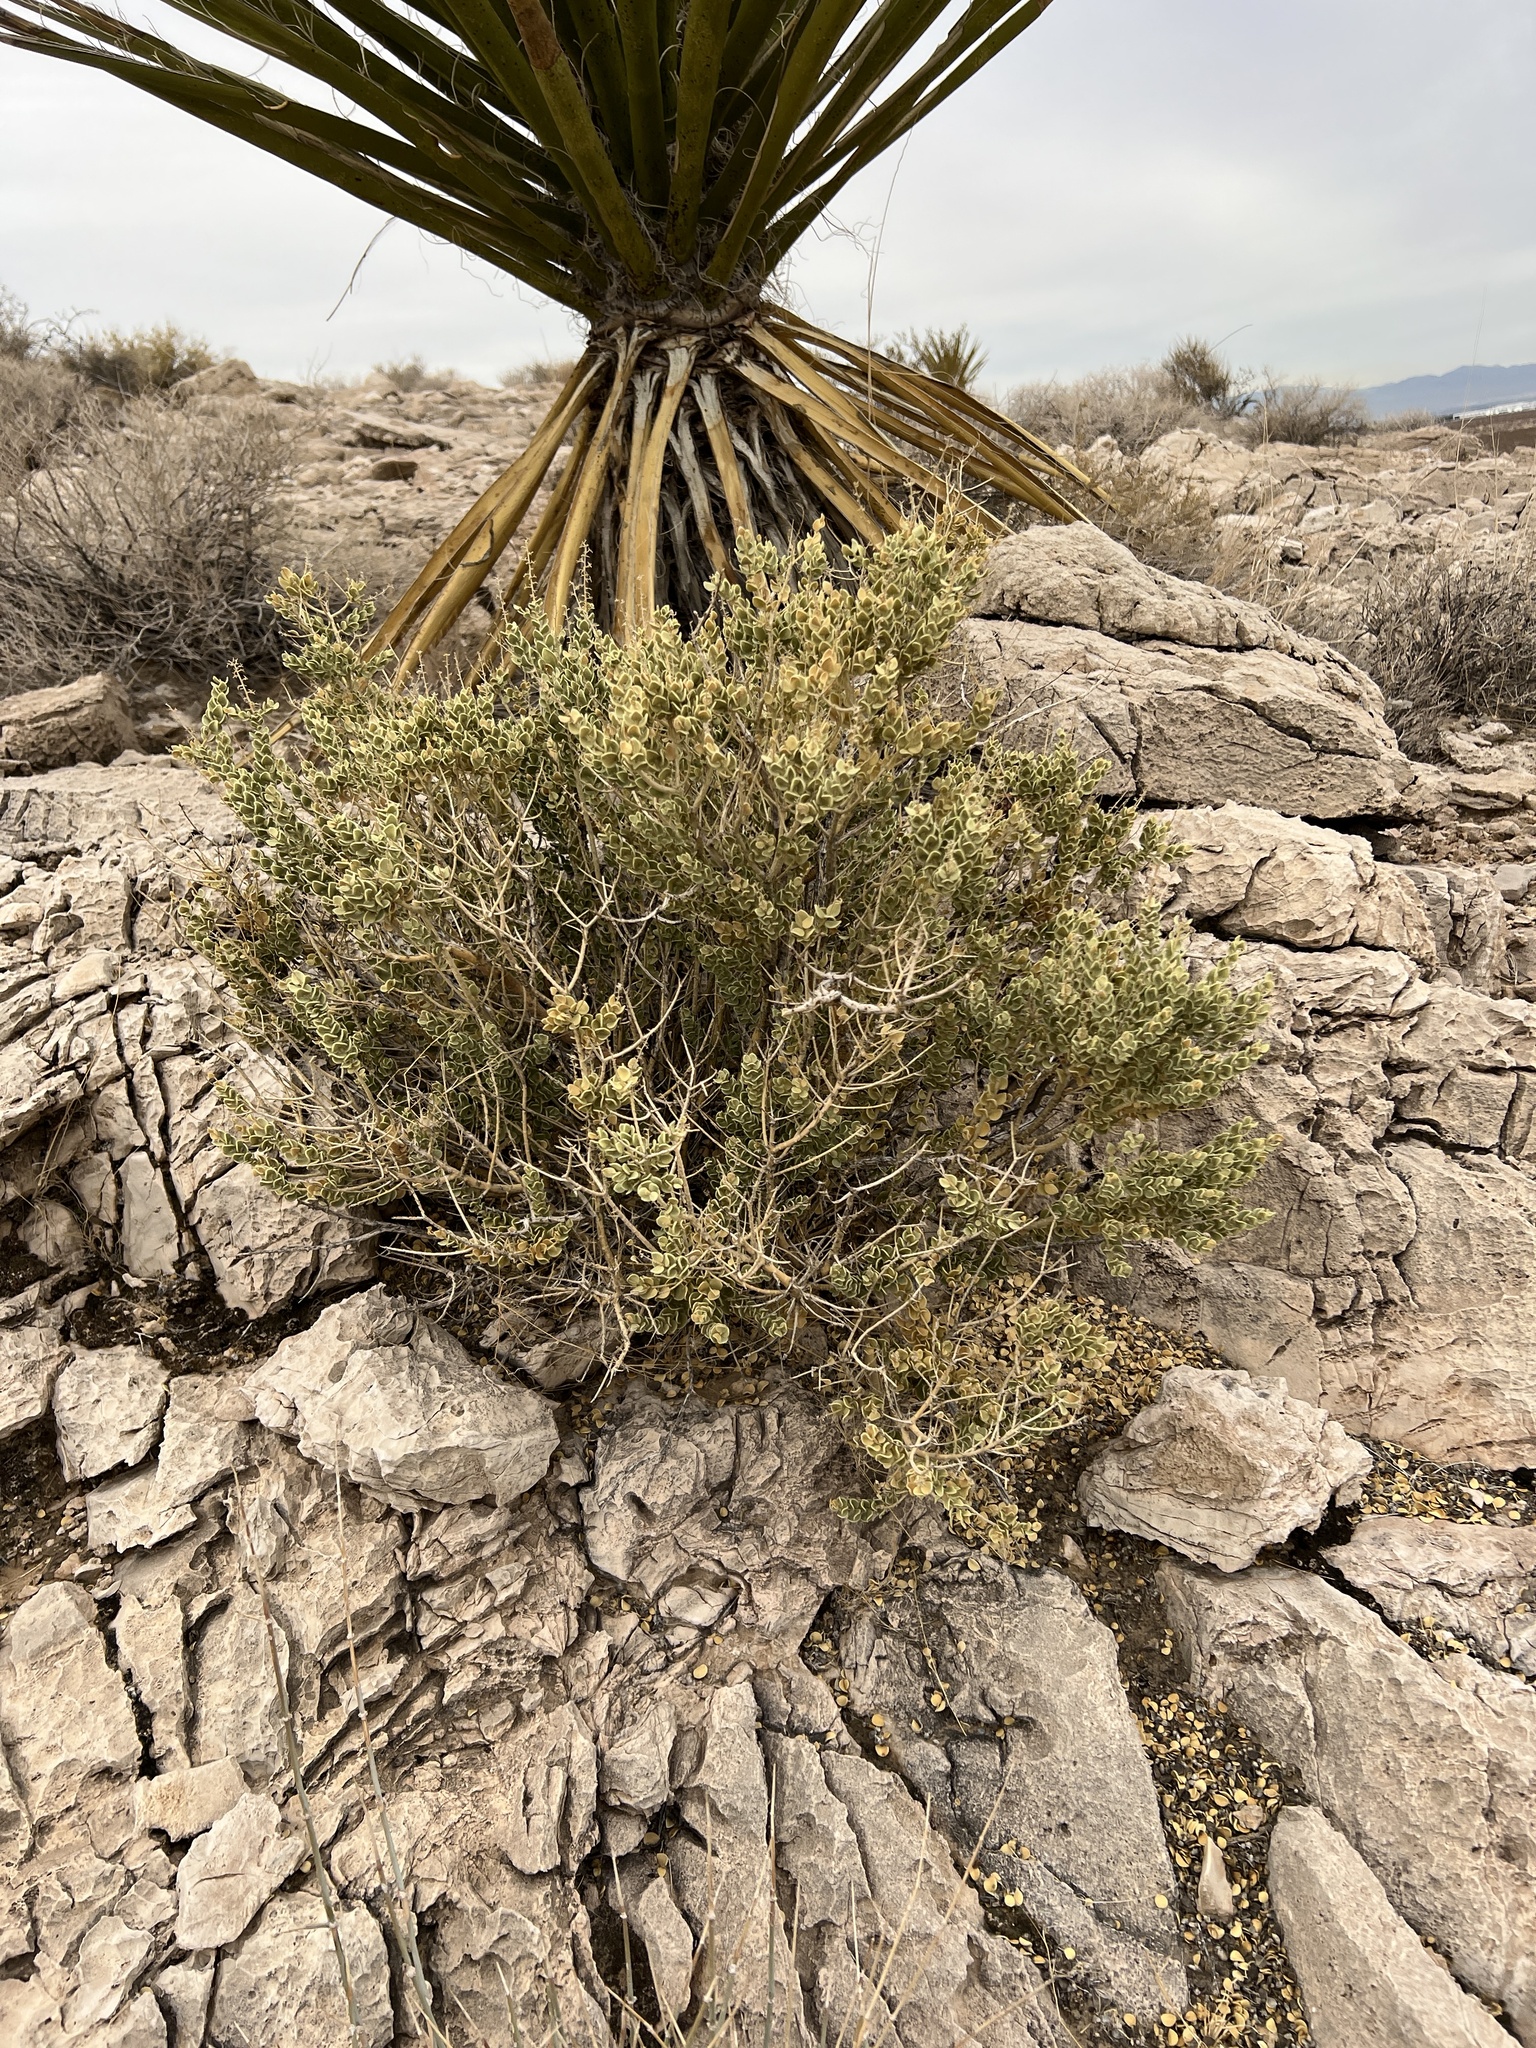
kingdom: Plantae
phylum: Tracheophyta
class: Magnoliopsida
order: Celastrales
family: Celastraceae
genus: Mortonia
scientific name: Mortonia utahensis
